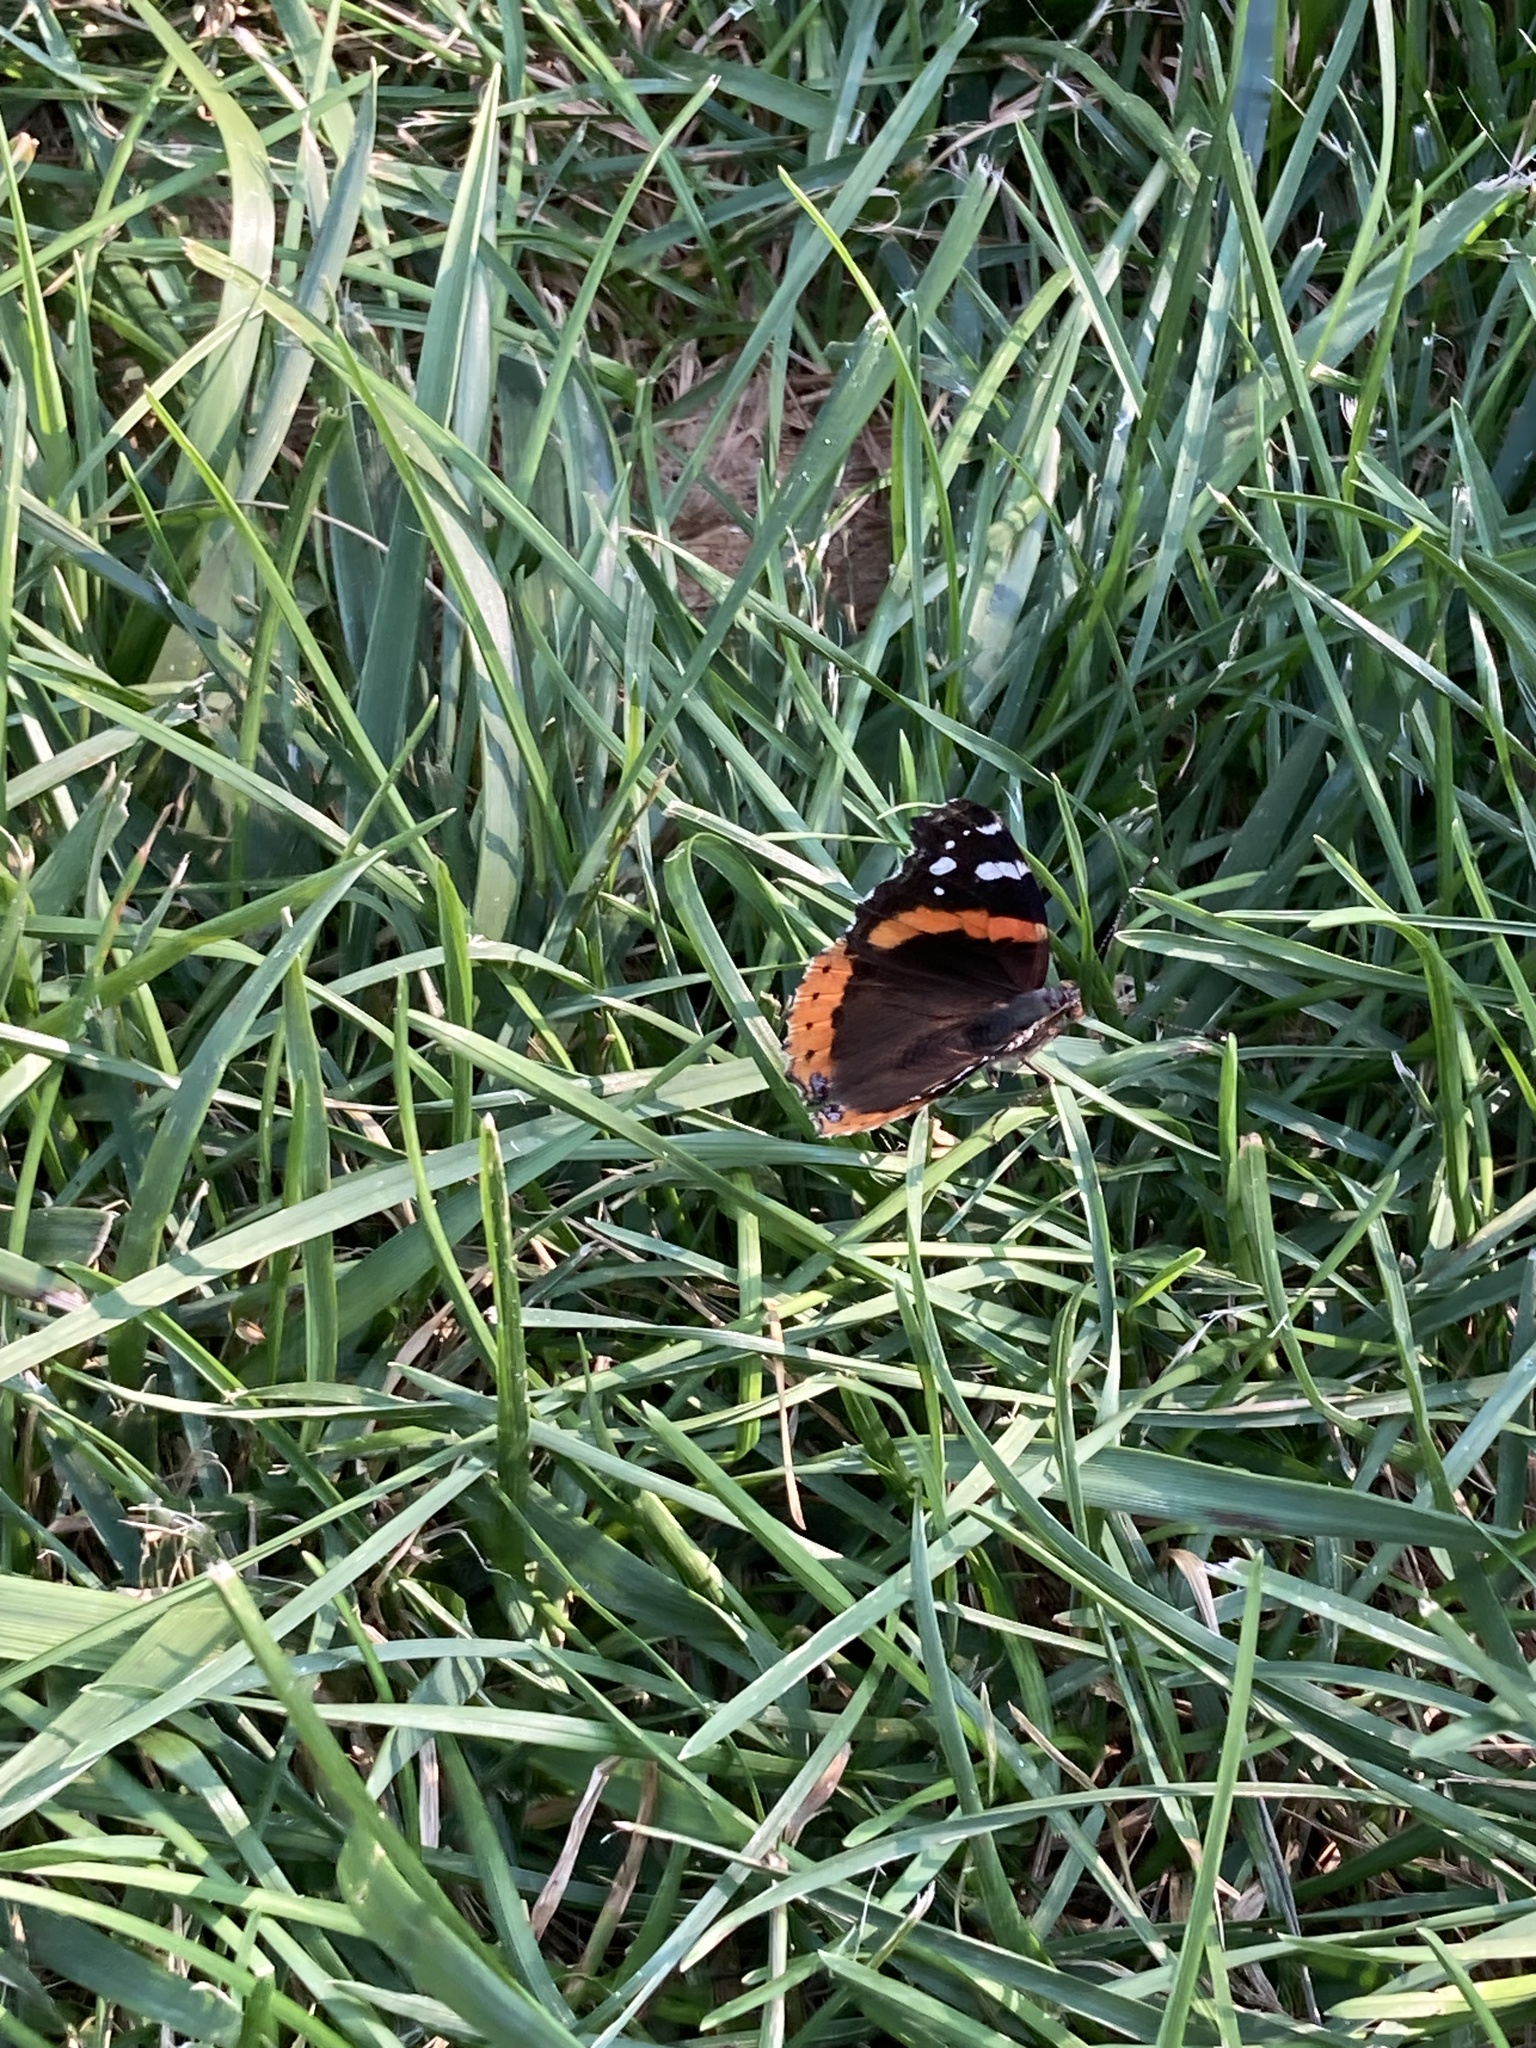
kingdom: Animalia
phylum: Arthropoda
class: Insecta
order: Lepidoptera
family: Nymphalidae
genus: Vanessa
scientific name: Vanessa atalanta
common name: Red admiral
